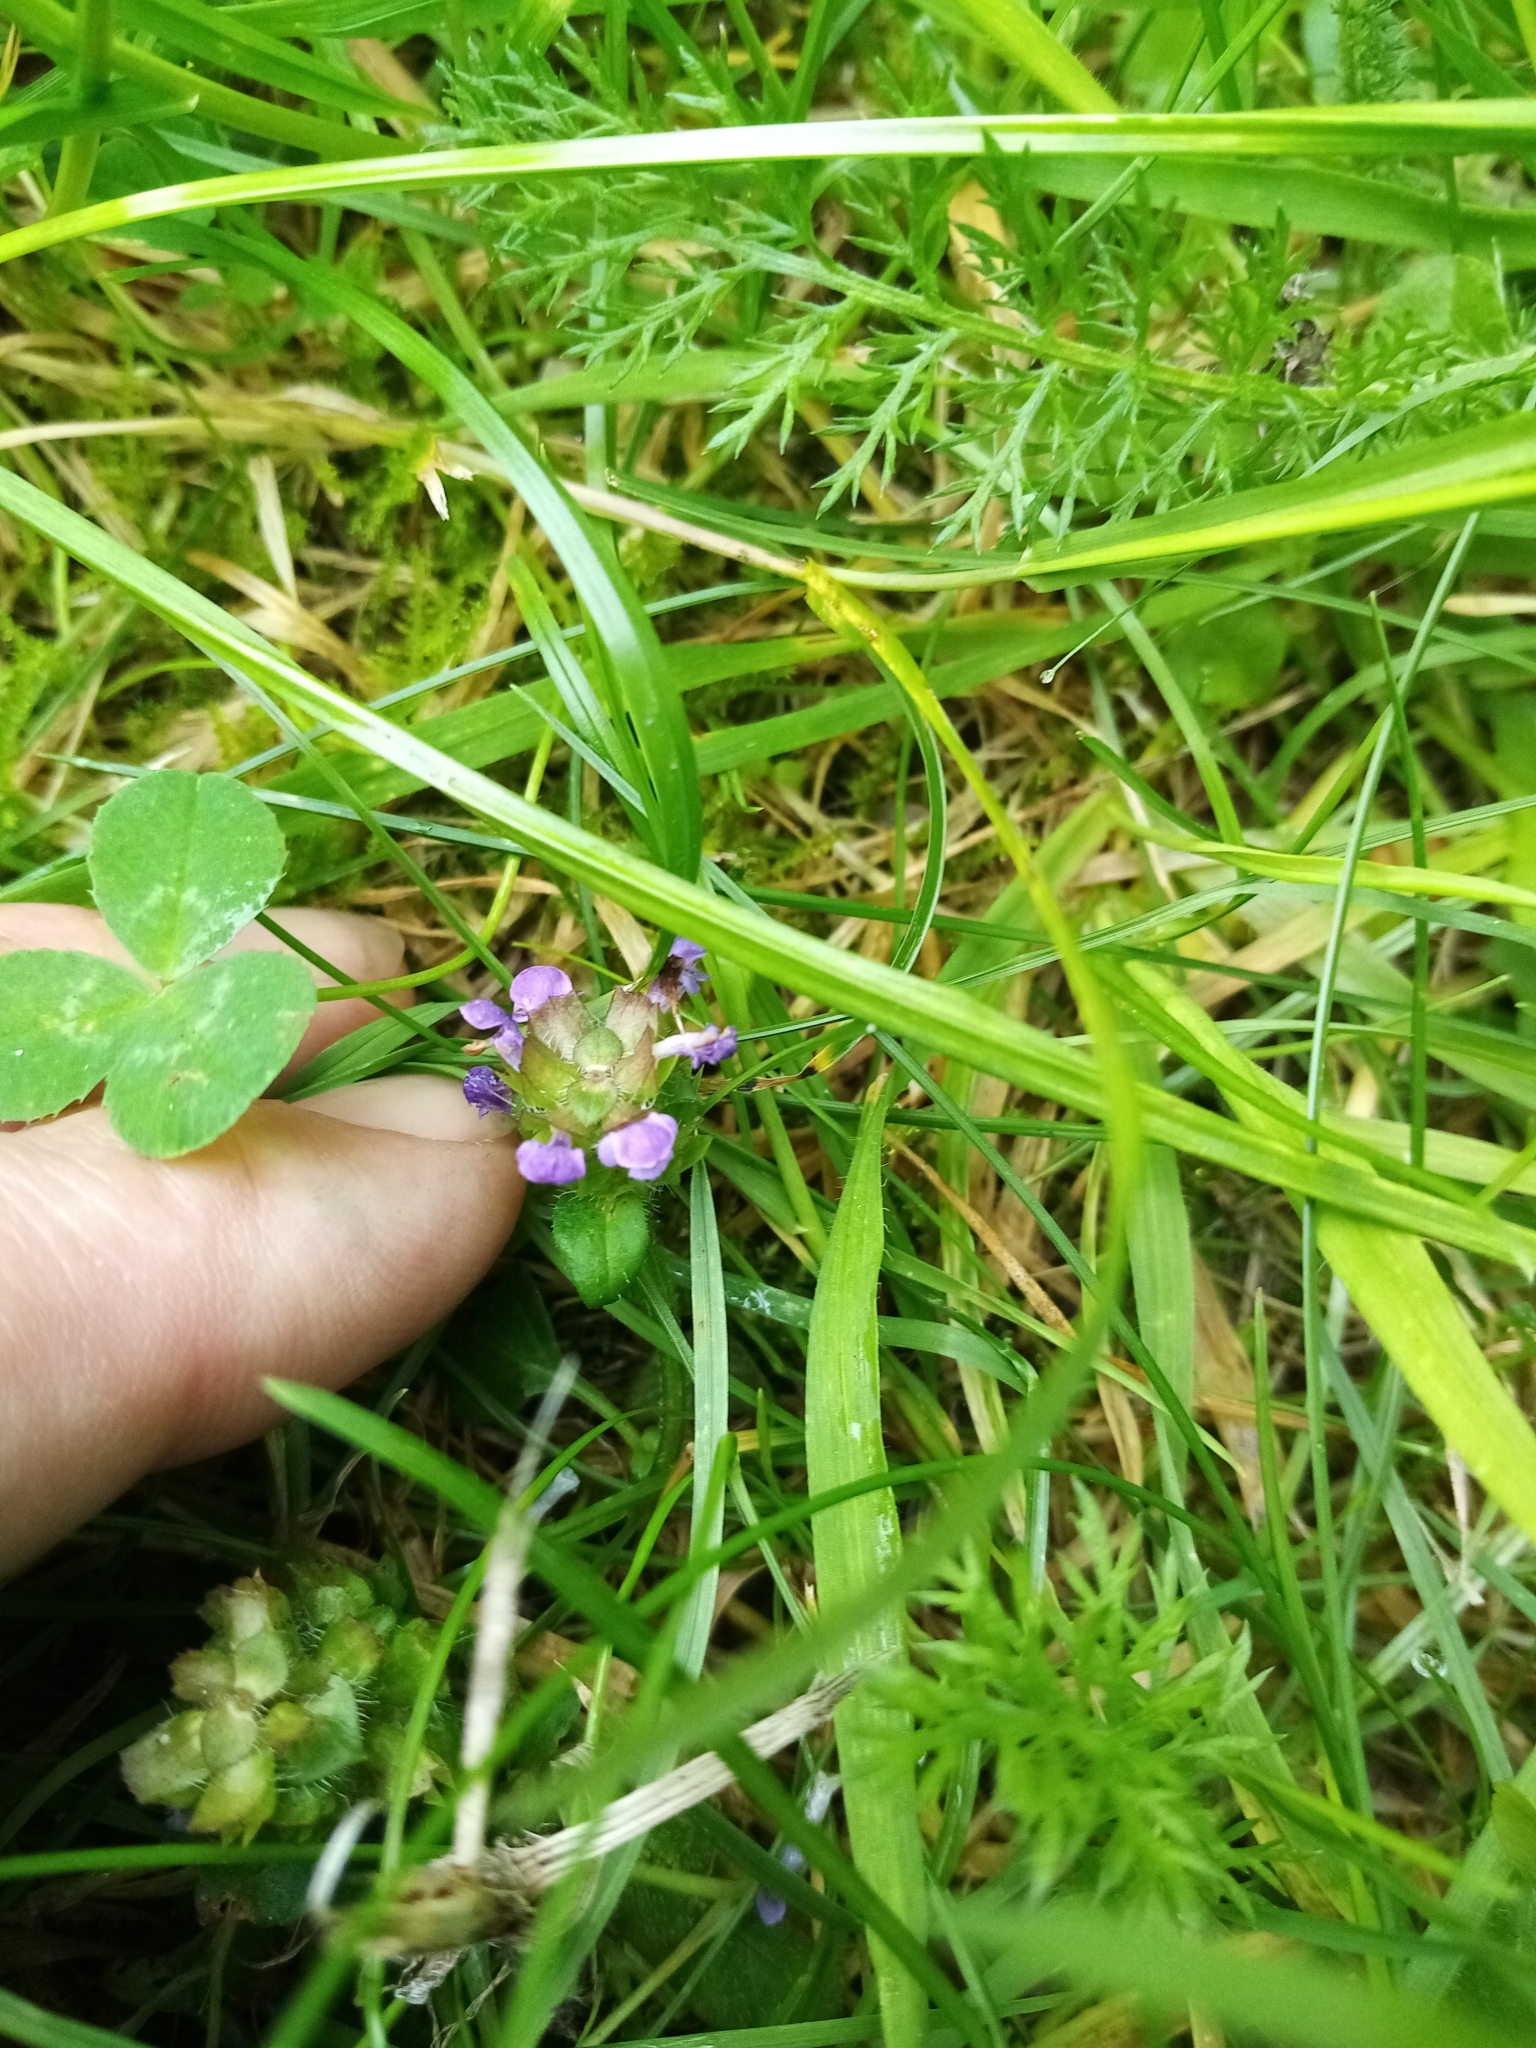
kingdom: Plantae
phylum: Tracheophyta
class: Magnoliopsida
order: Lamiales
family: Lamiaceae
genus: Prunella
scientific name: Prunella vulgaris
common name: Heal-all
